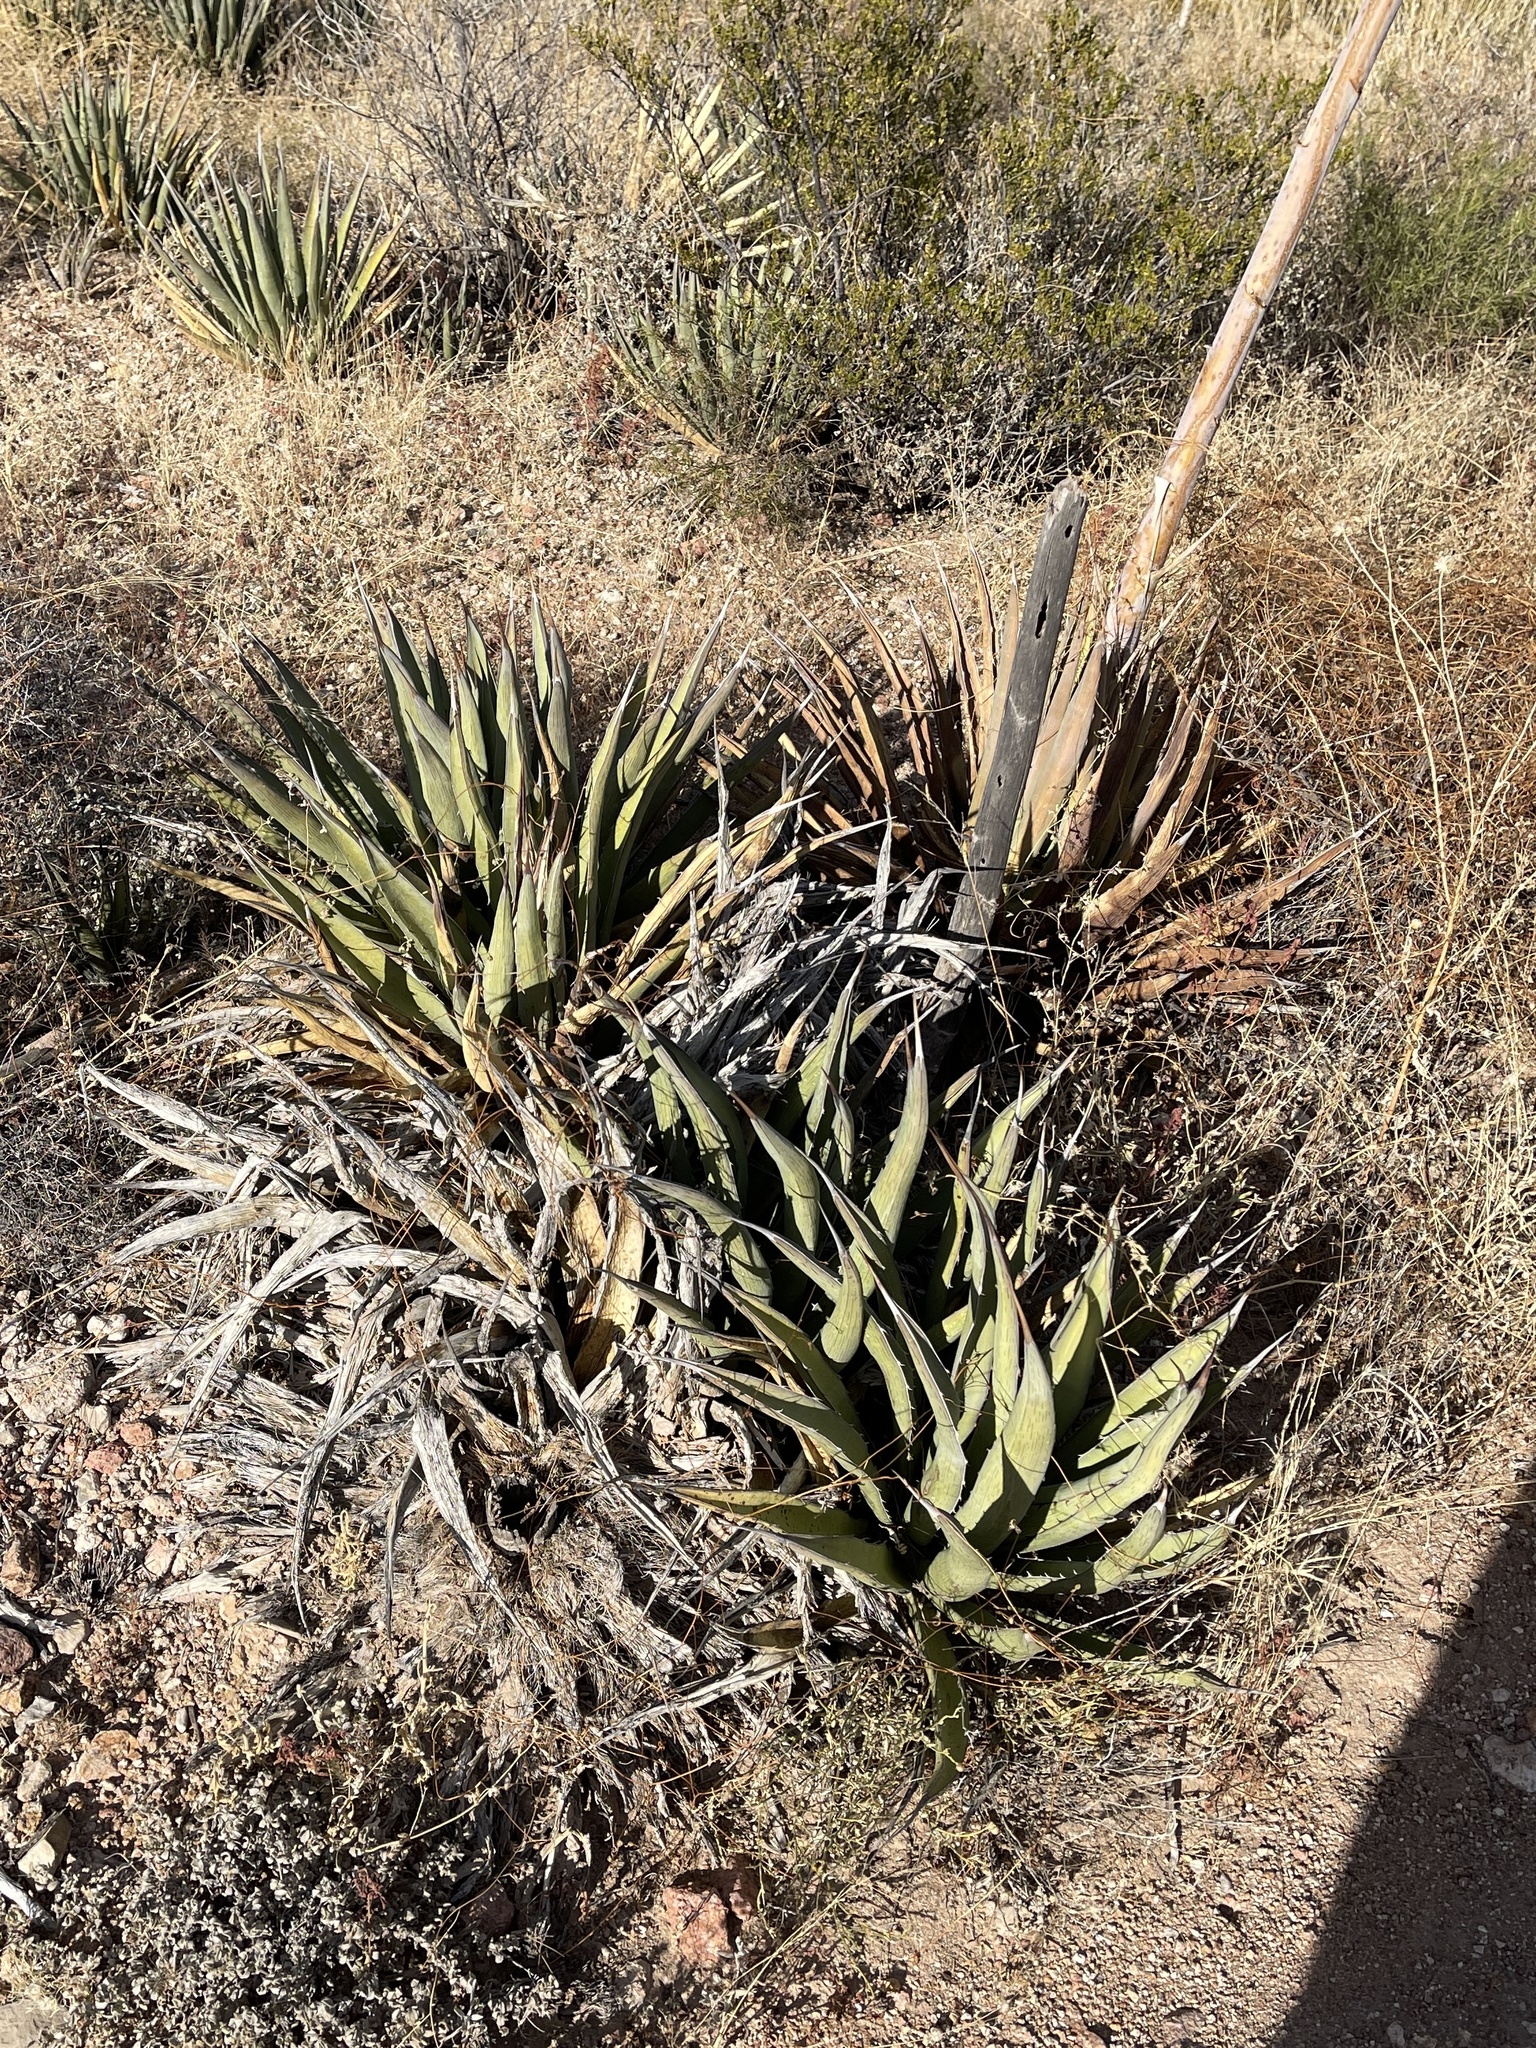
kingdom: Plantae
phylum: Tracheophyta
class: Liliopsida
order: Asparagales
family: Asparagaceae
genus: Agave
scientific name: Agave lechuguilla
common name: Lecheguilla agave
